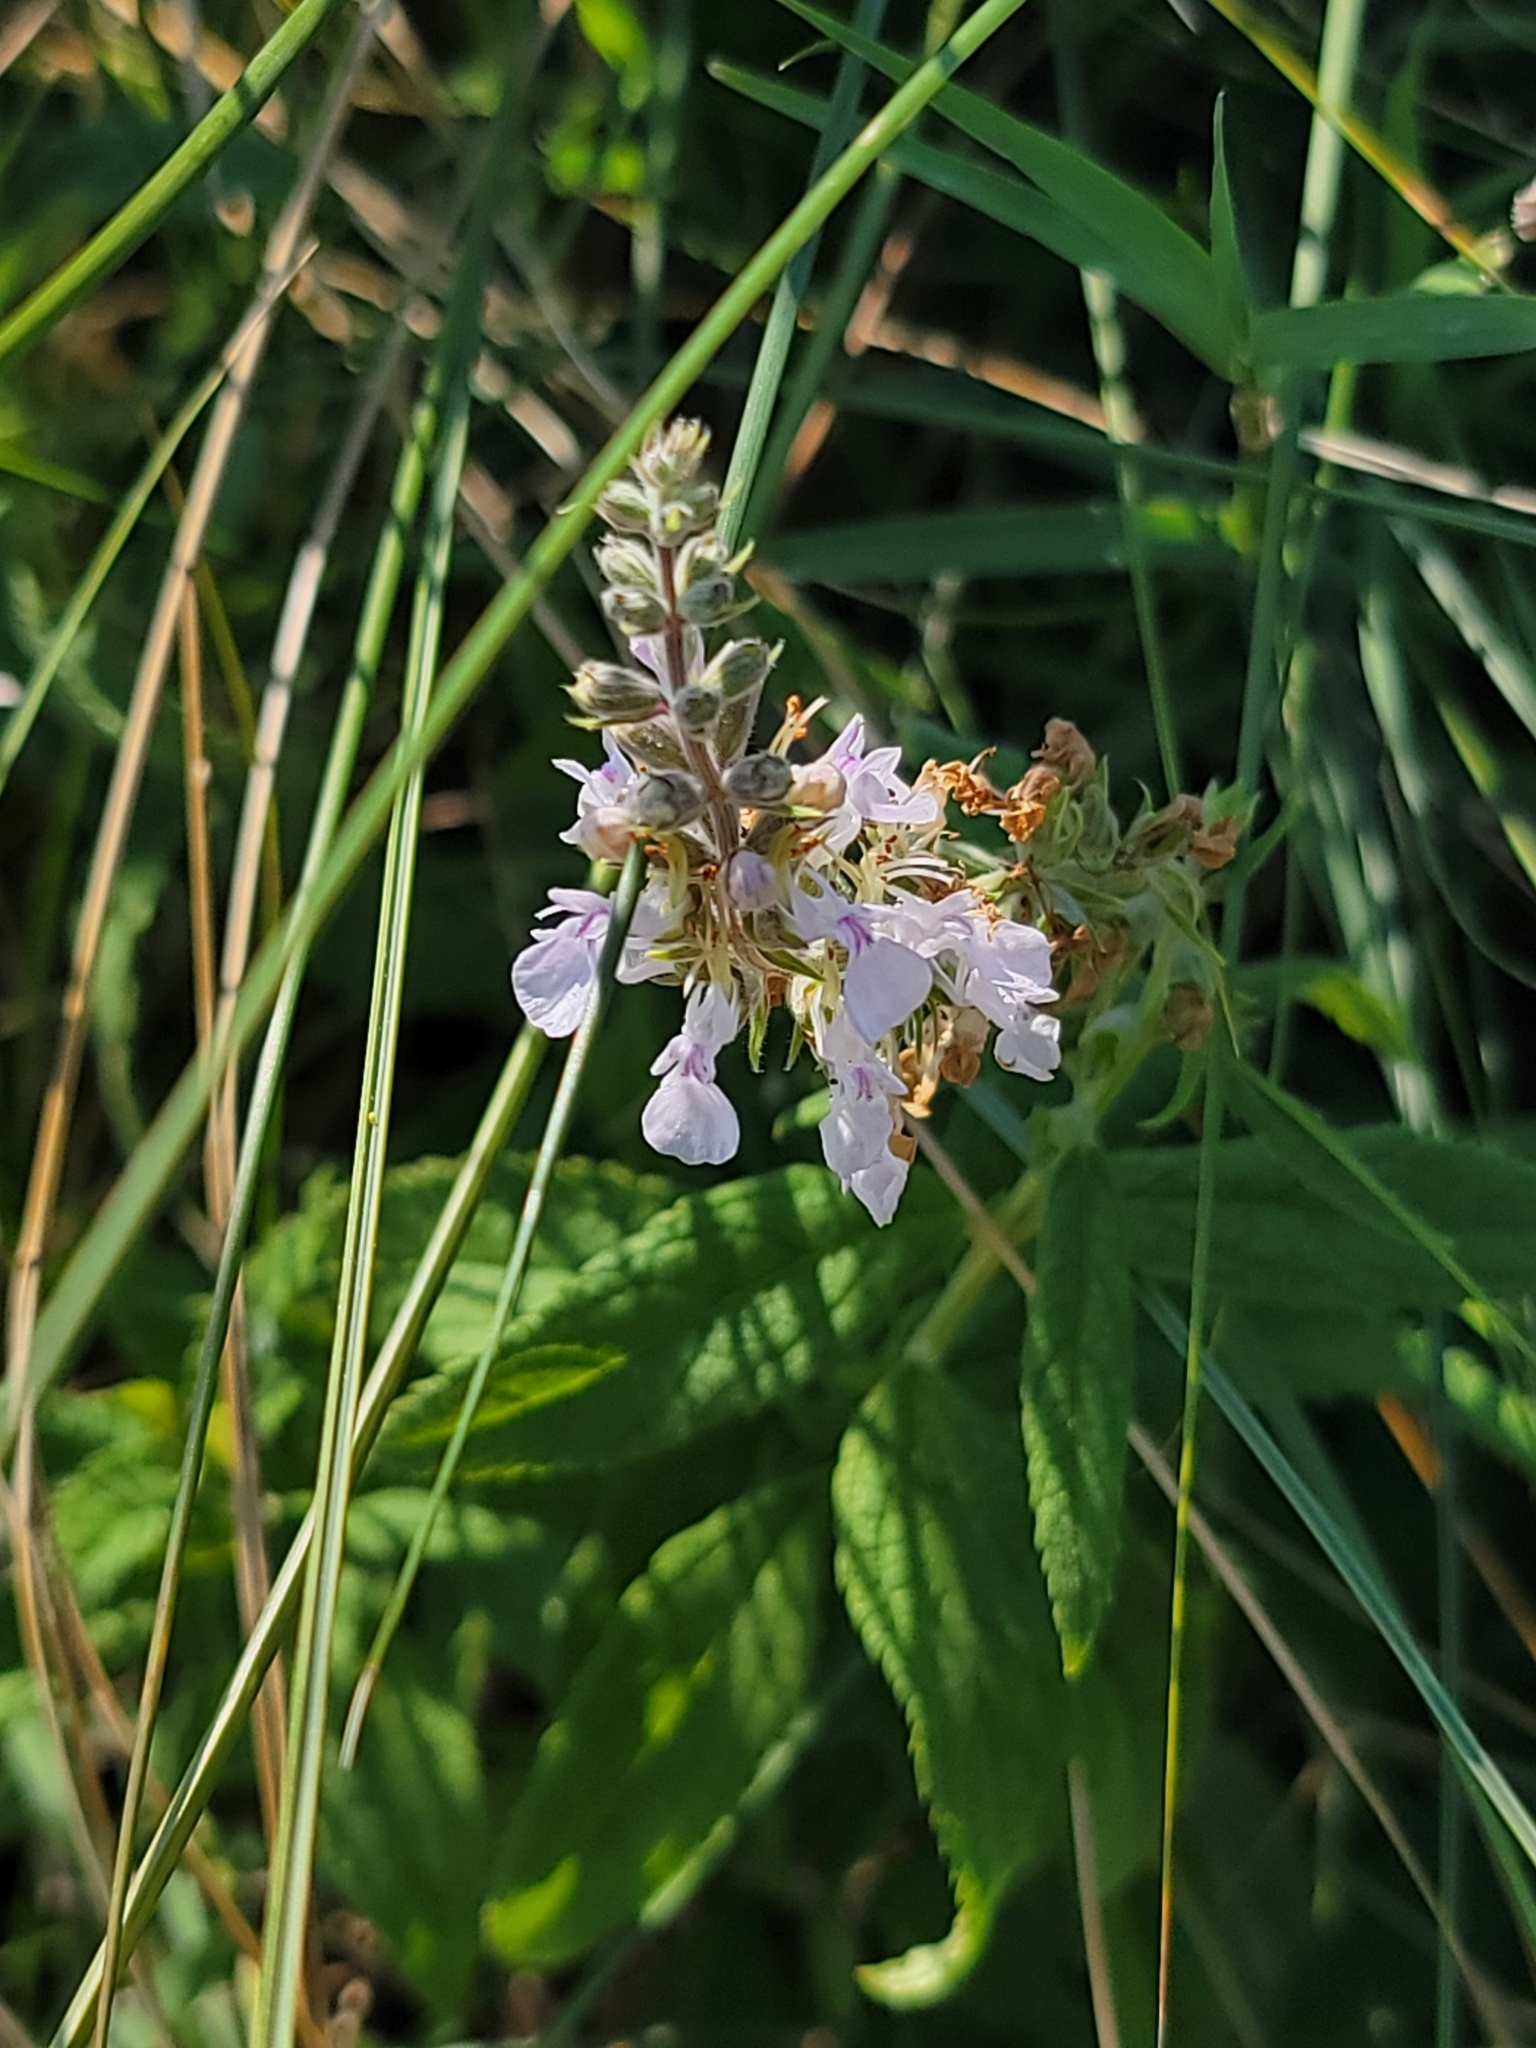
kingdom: Plantae
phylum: Tracheophyta
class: Magnoliopsida
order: Lamiales
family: Lamiaceae
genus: Teucrium
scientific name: Teucrium canadense
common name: American germander
